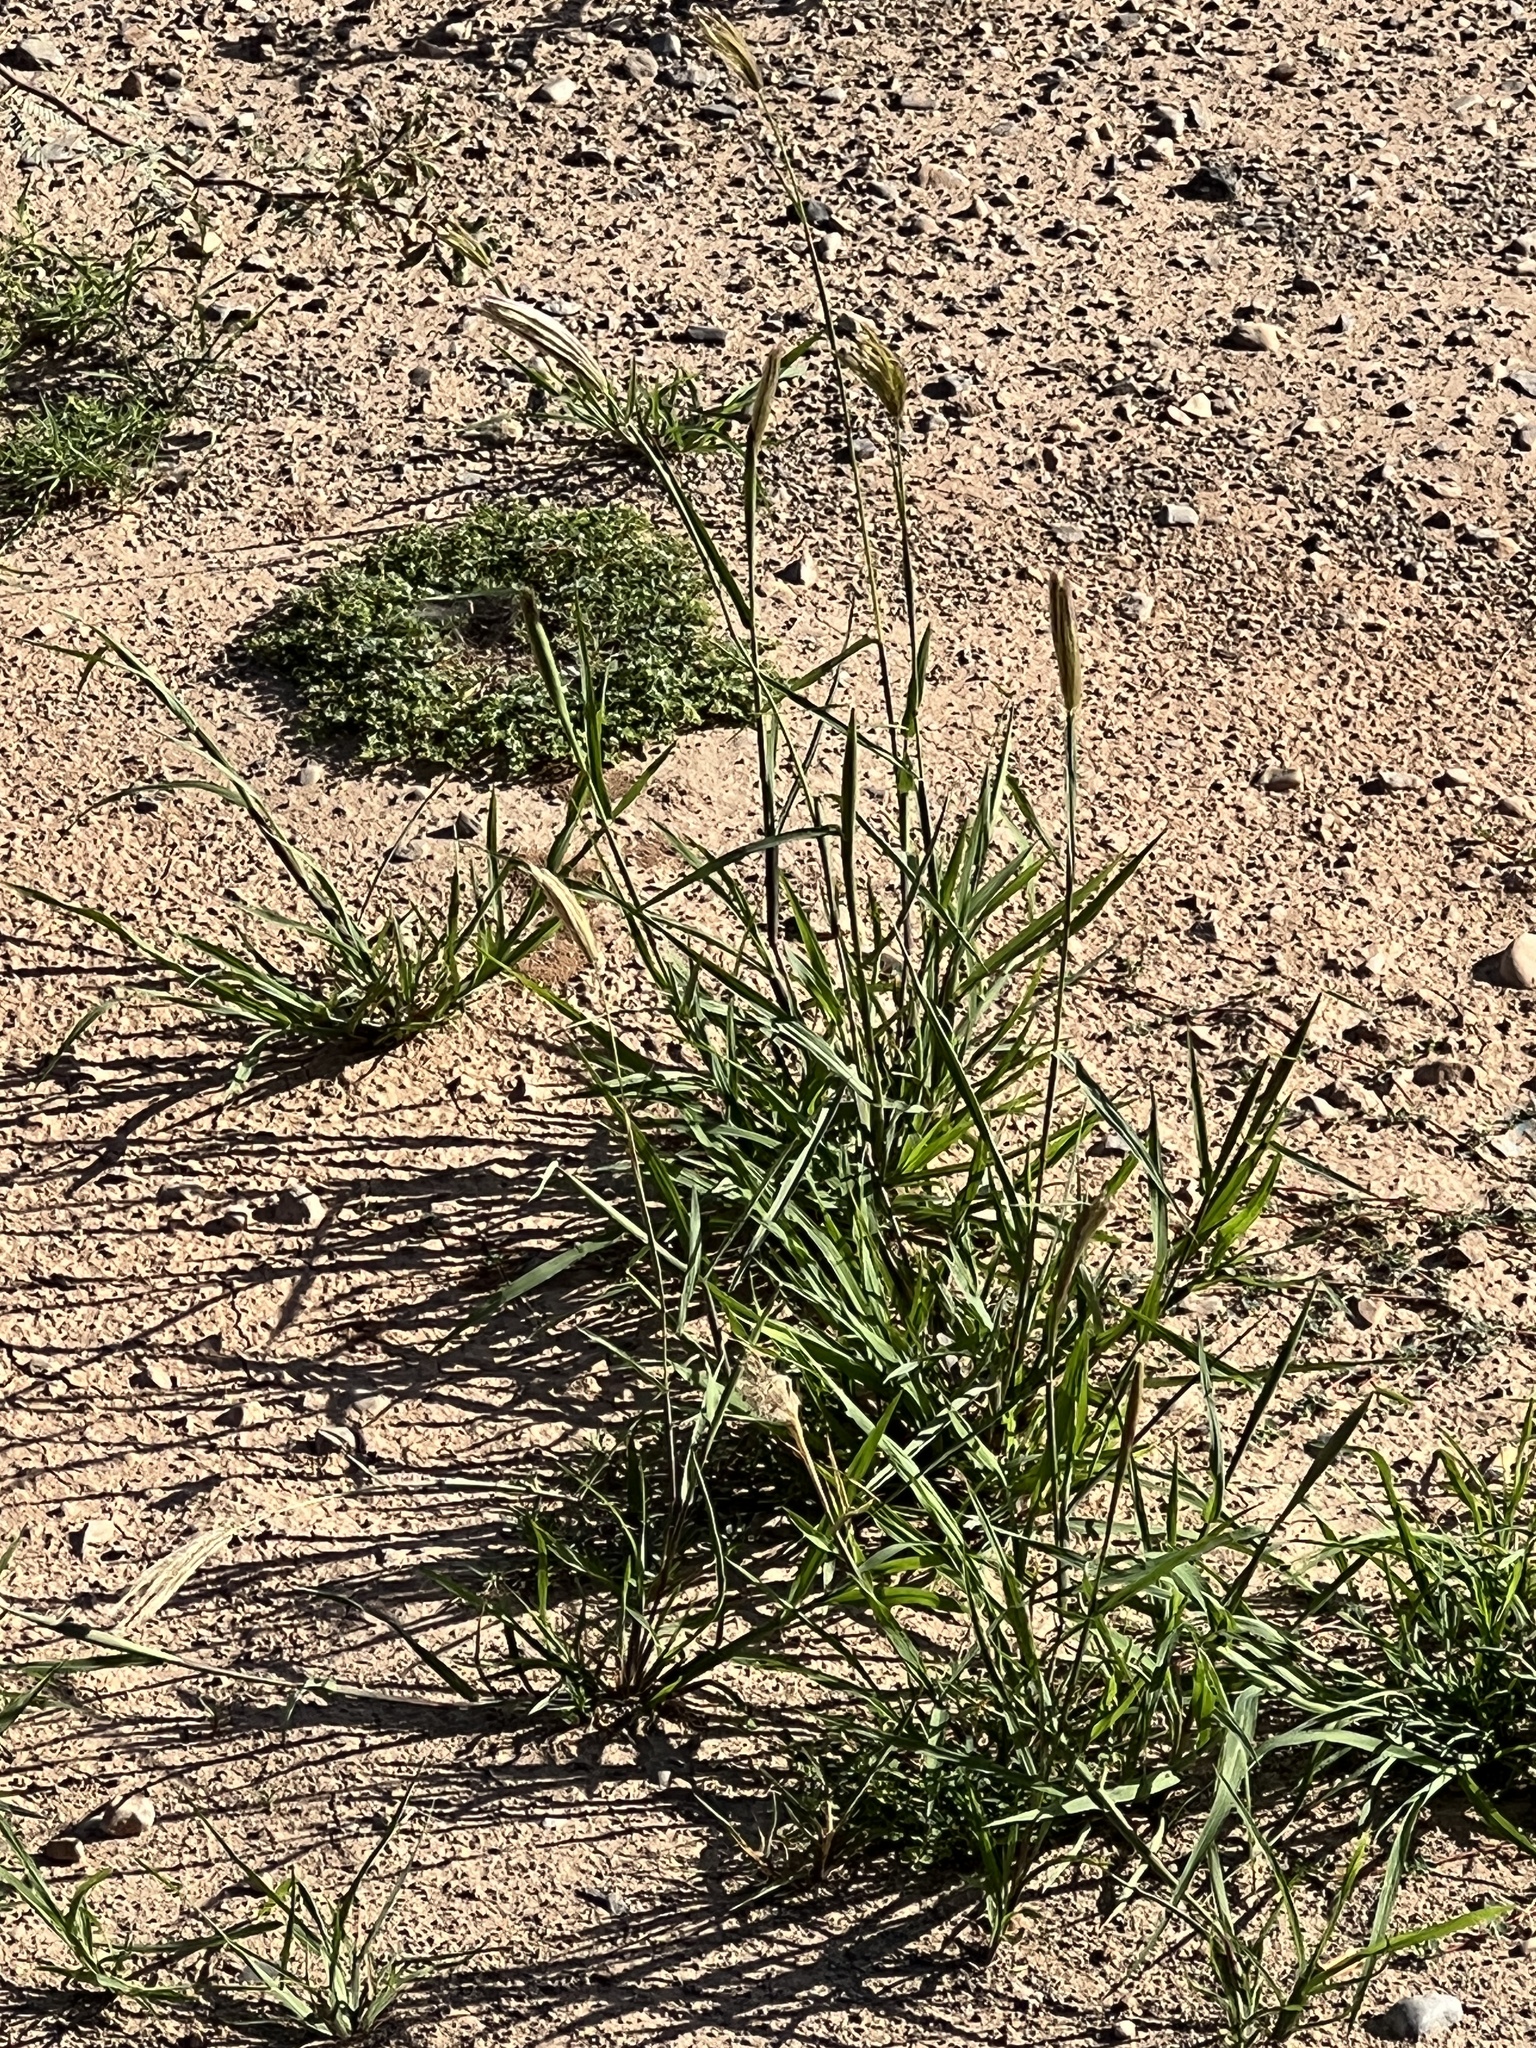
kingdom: Plantae
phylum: Tracheophyta
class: Liliopsida
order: Poales
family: Poaceae
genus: Chloris
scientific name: Chloris virgata
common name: Feathery rhodes-grass
